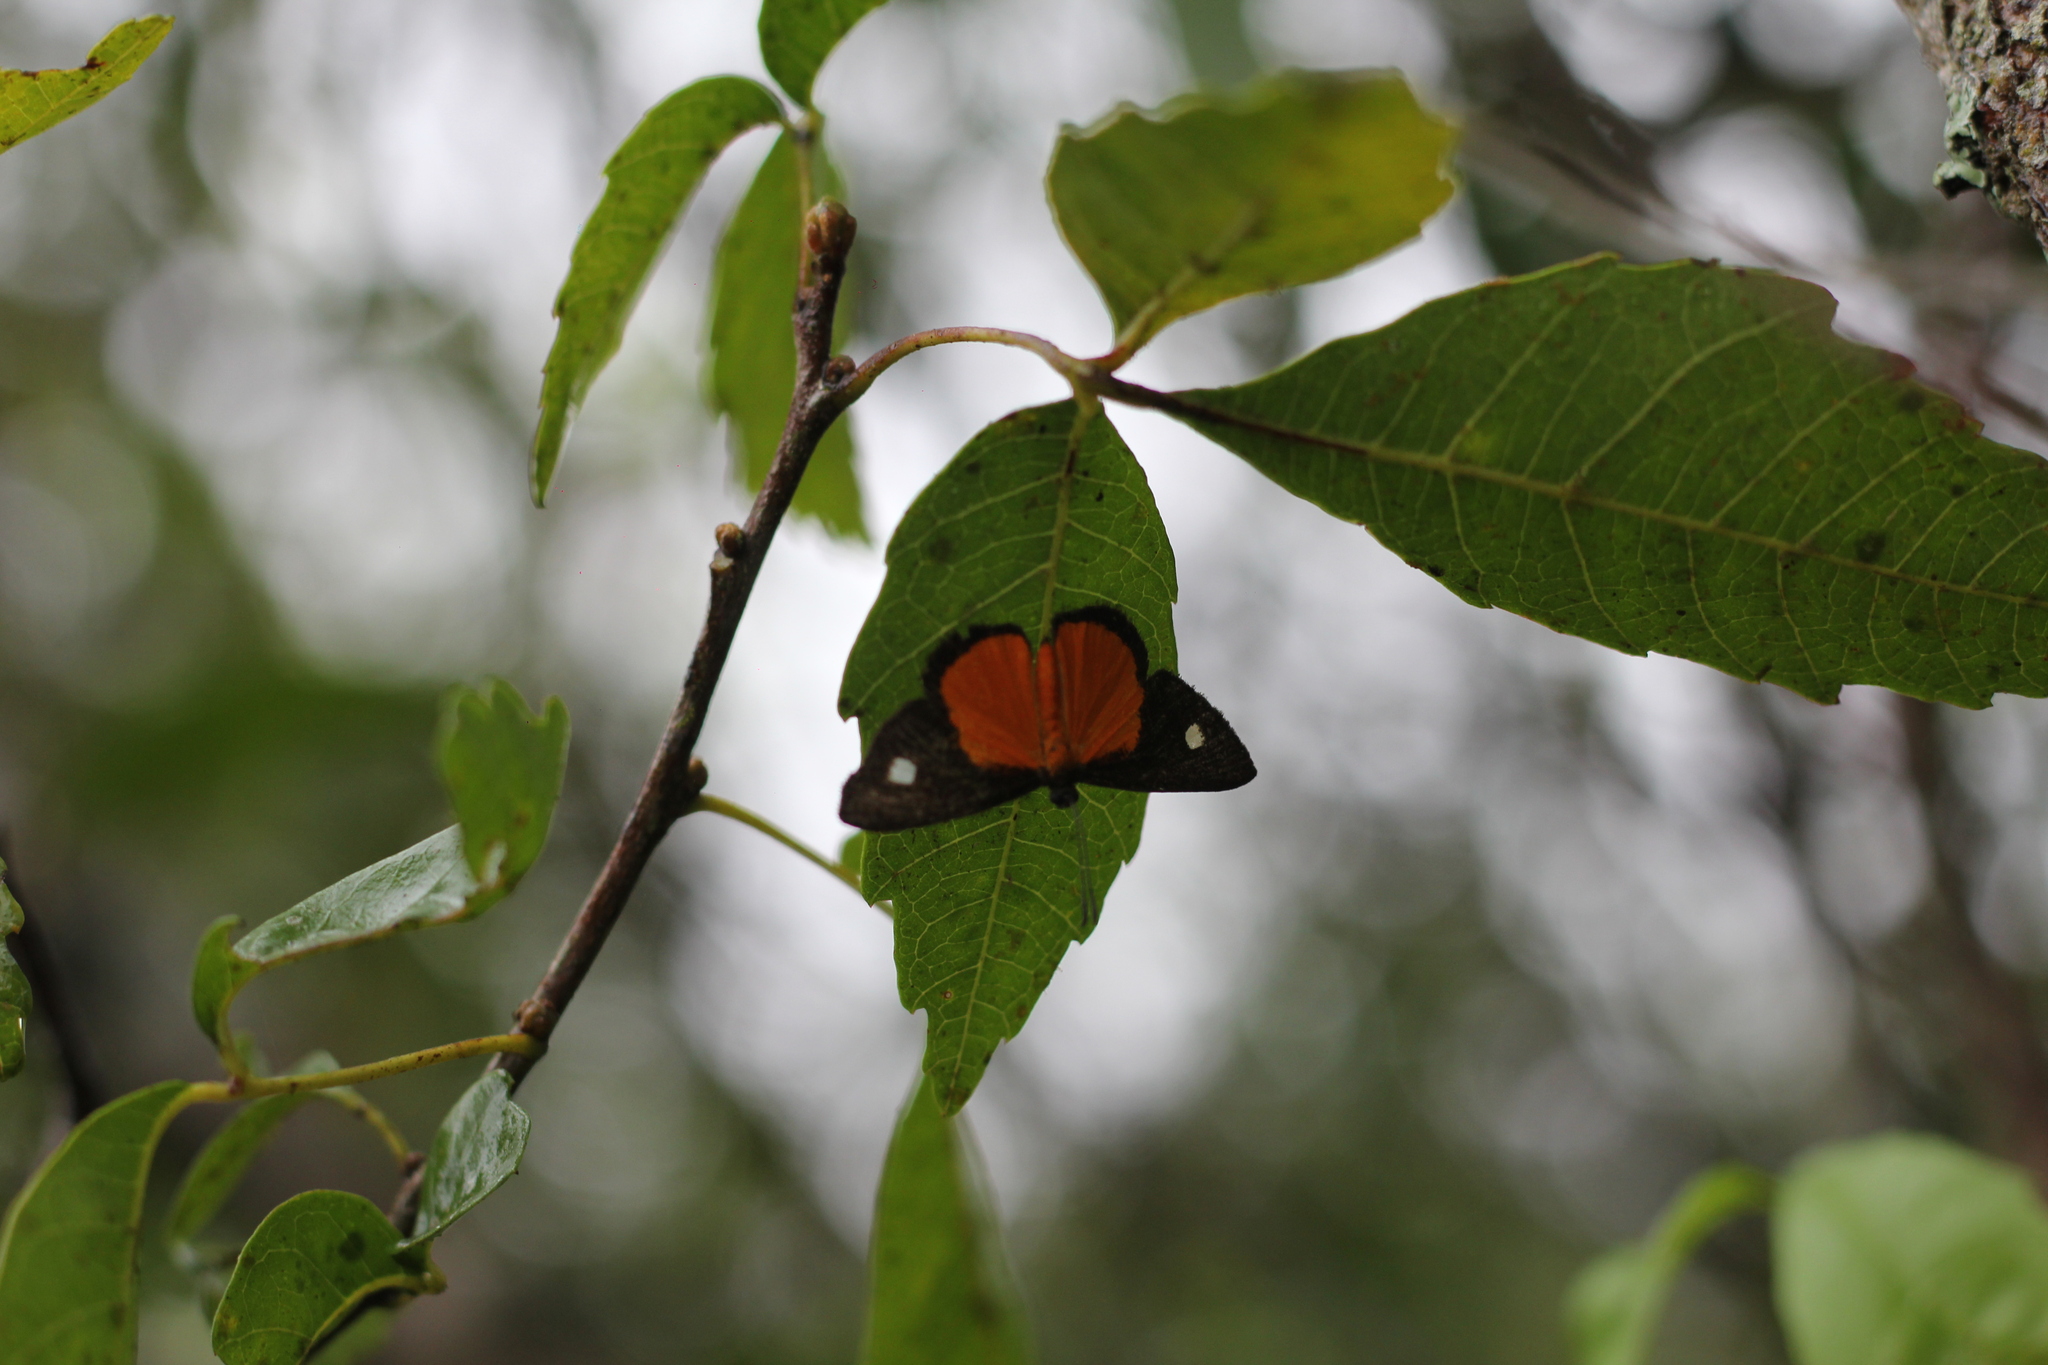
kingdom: Animalia
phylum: Arthropoda
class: Insecta
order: Lepidoptera
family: Lycaenidae
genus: Mesene
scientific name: Mesene hya
